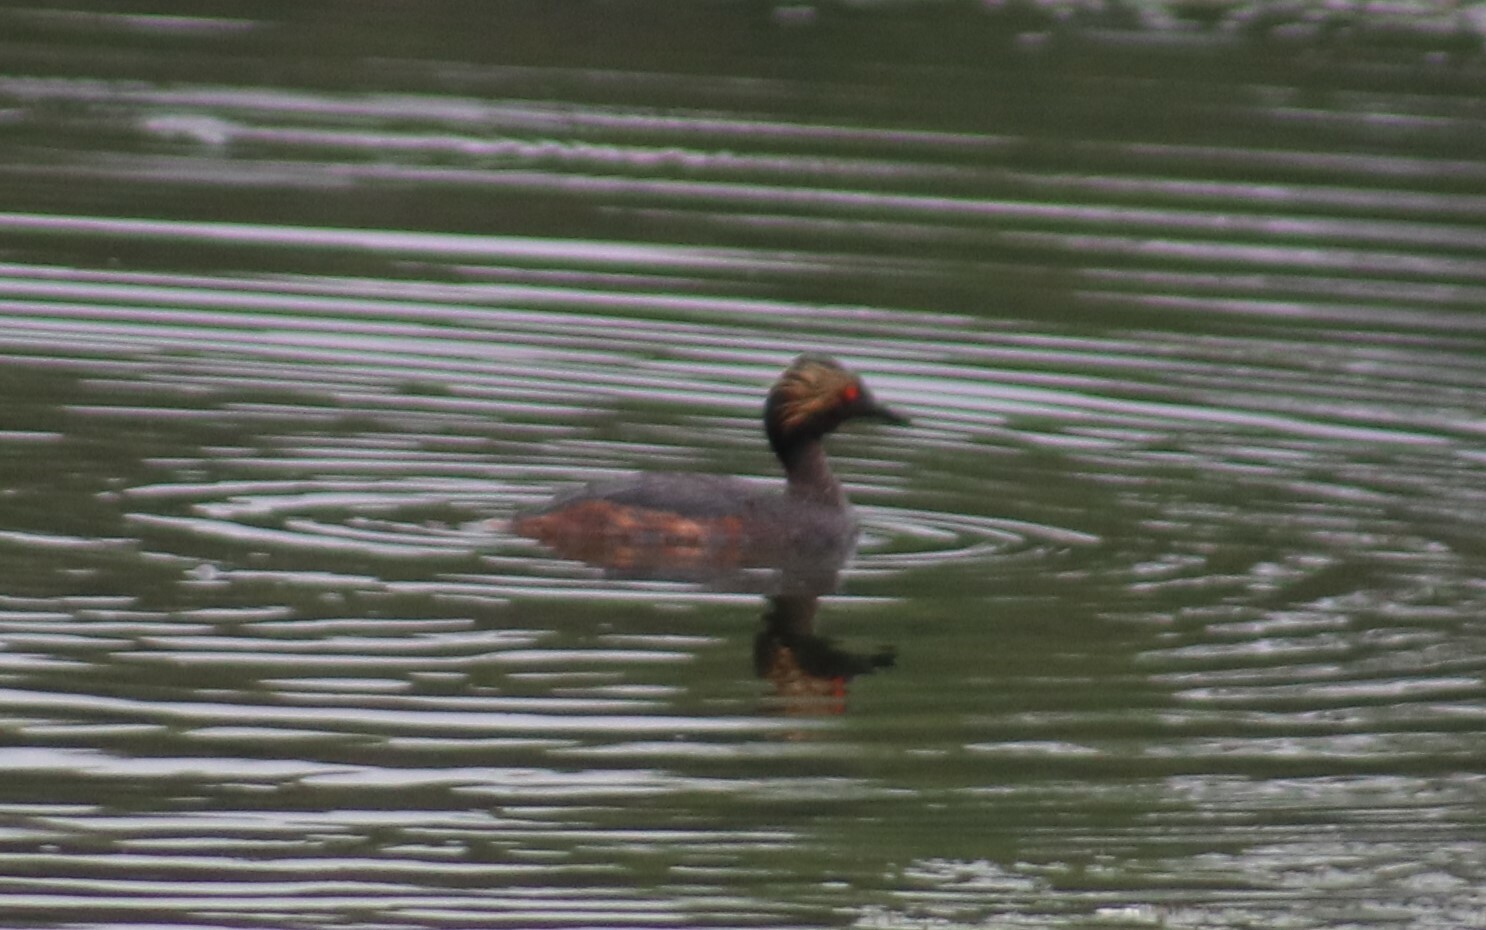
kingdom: Animalia
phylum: Chordata
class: Aves
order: Podicipediformes
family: Podicipedidae
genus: Podiceps
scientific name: Podiceps nigricollis
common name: Black-necked grebe
